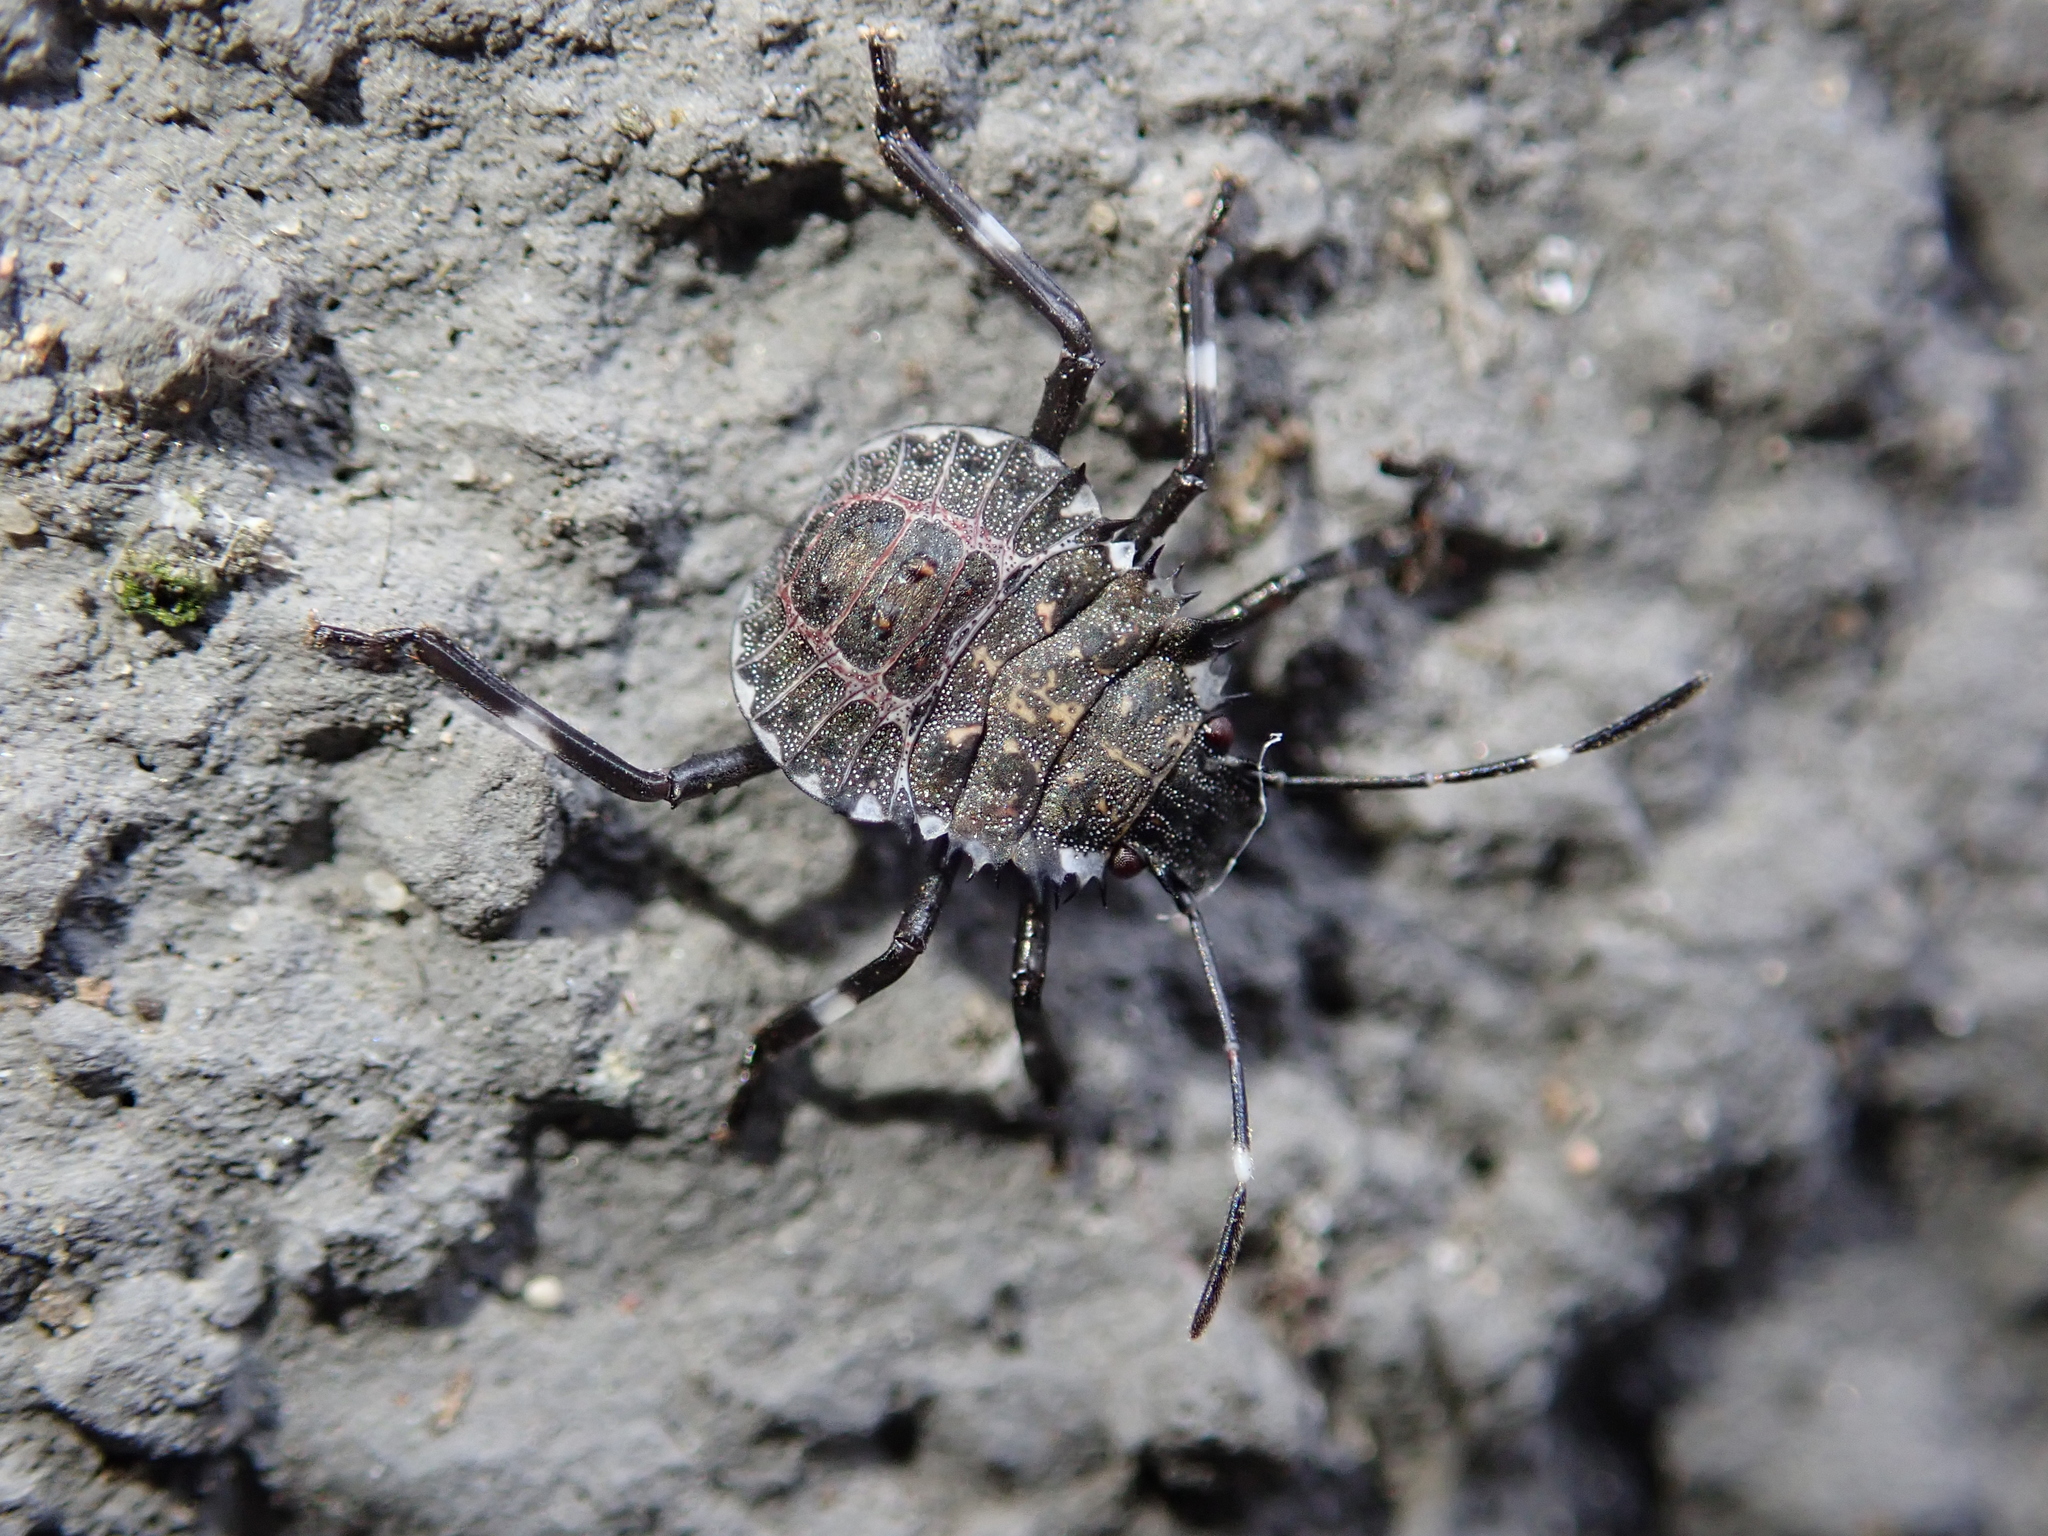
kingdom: Animalia
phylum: Arthropoda
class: Insecta
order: Hemiptera
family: Pentatomidae
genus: Halyomorpha
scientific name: Halyomorpha halys
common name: Brown marmorated stink bug
